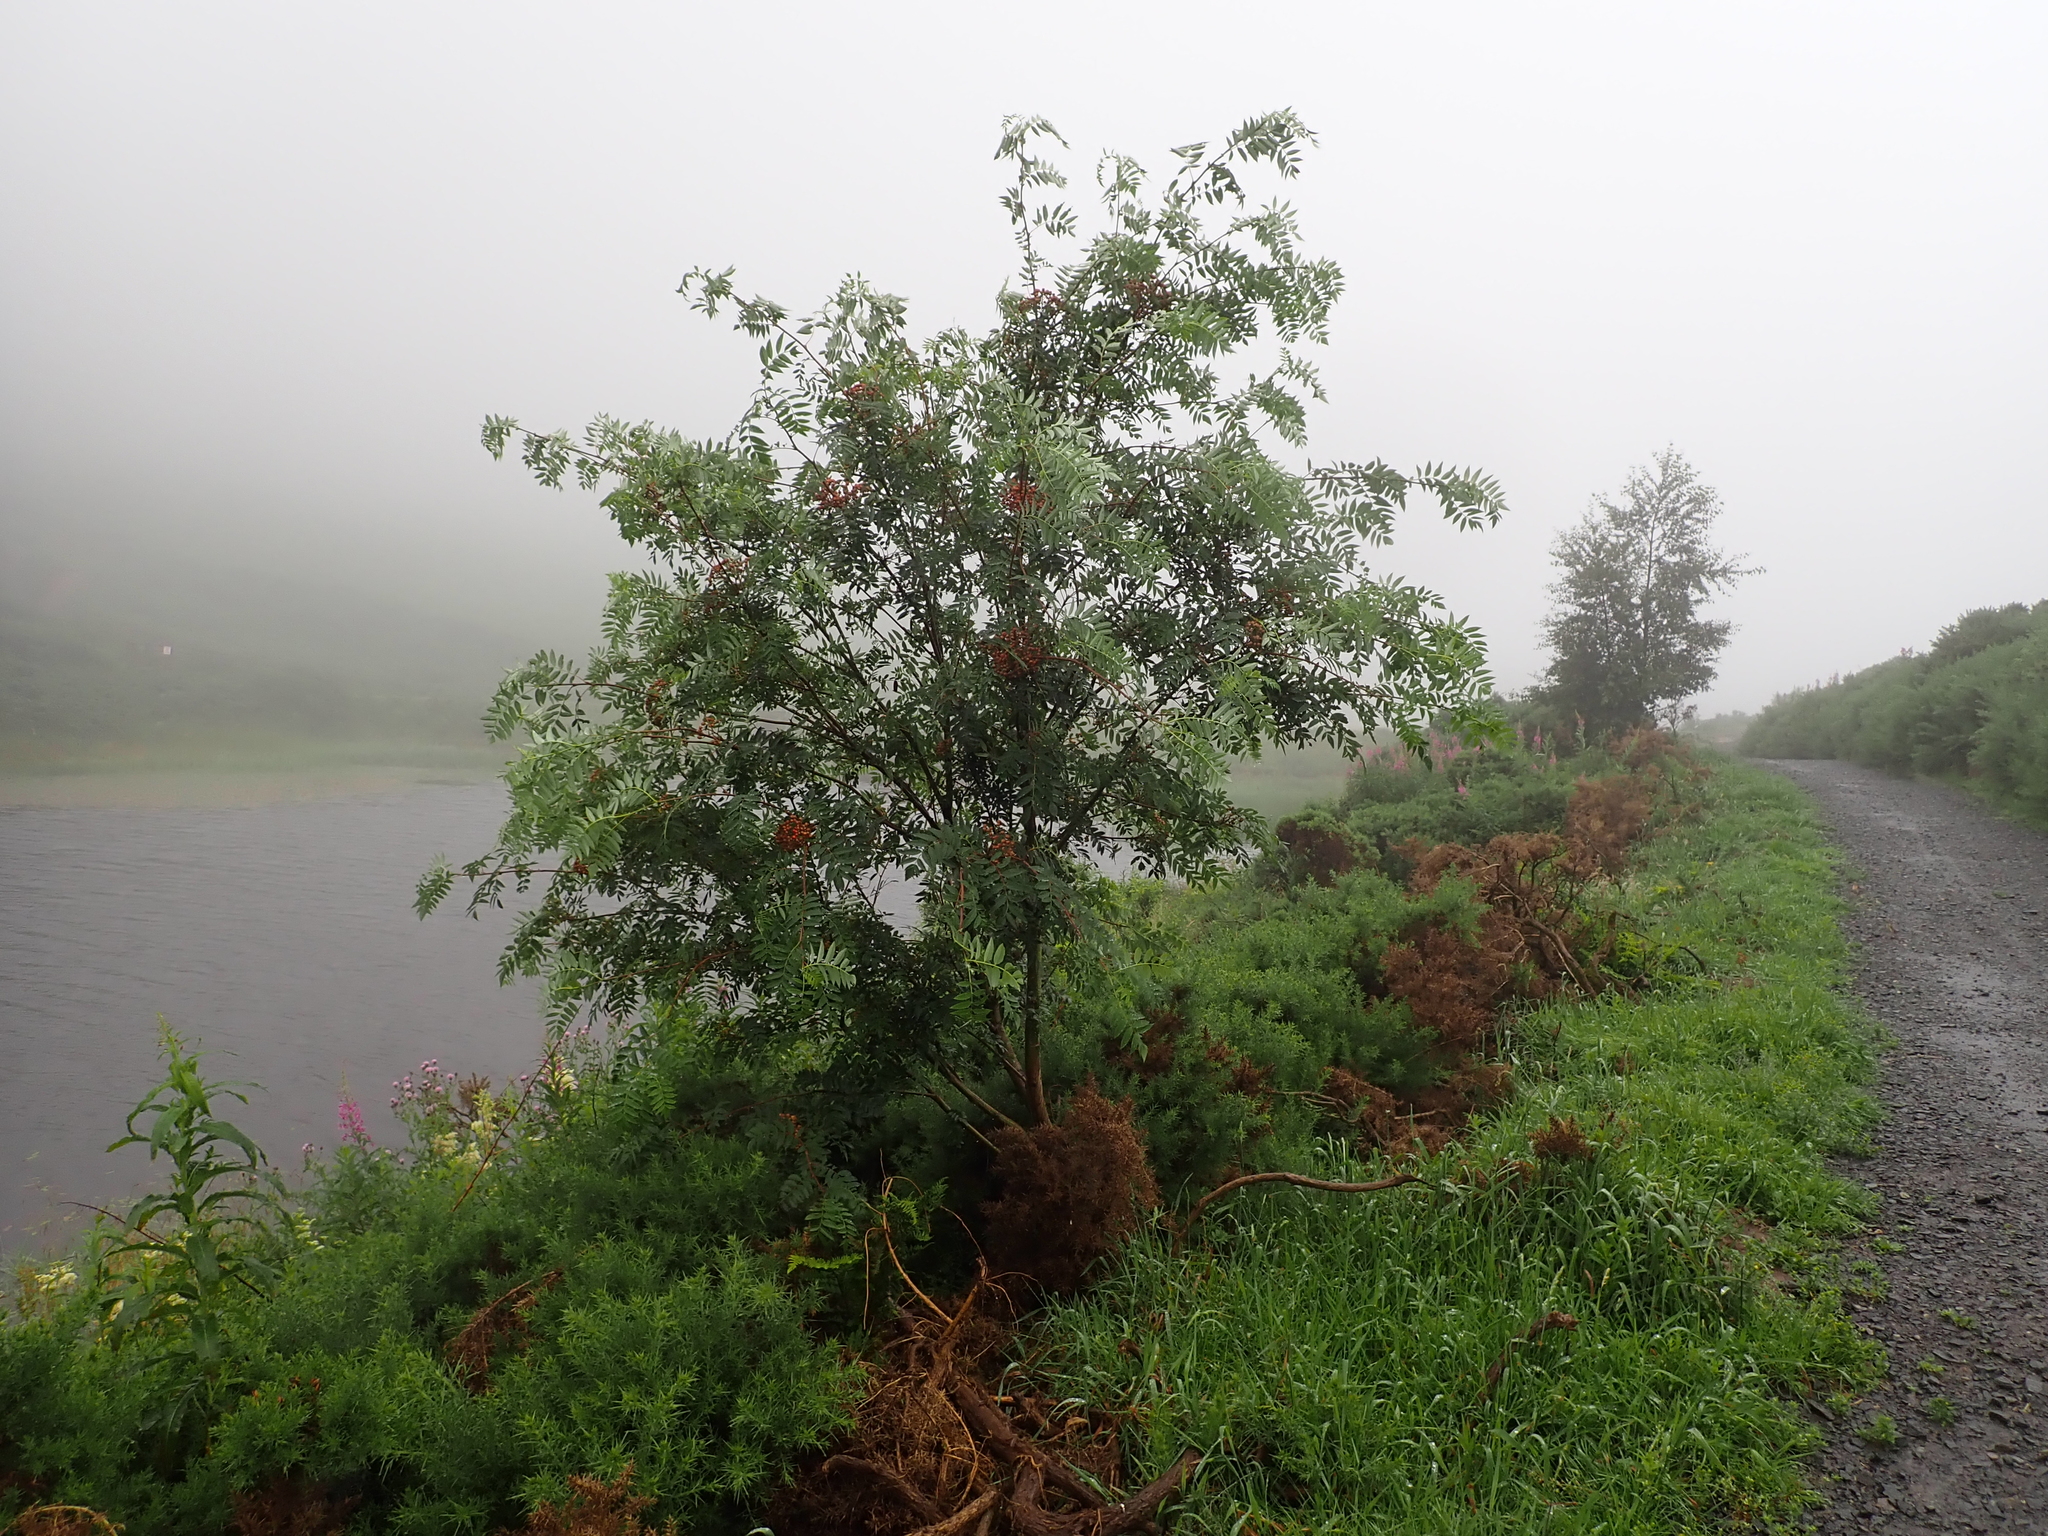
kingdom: Plantae
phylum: Tracheophyta
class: Magnoliopsida
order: Rosales
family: Rosaceae
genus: Sorbus
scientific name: Sorbus aucuparia
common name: Rowan
